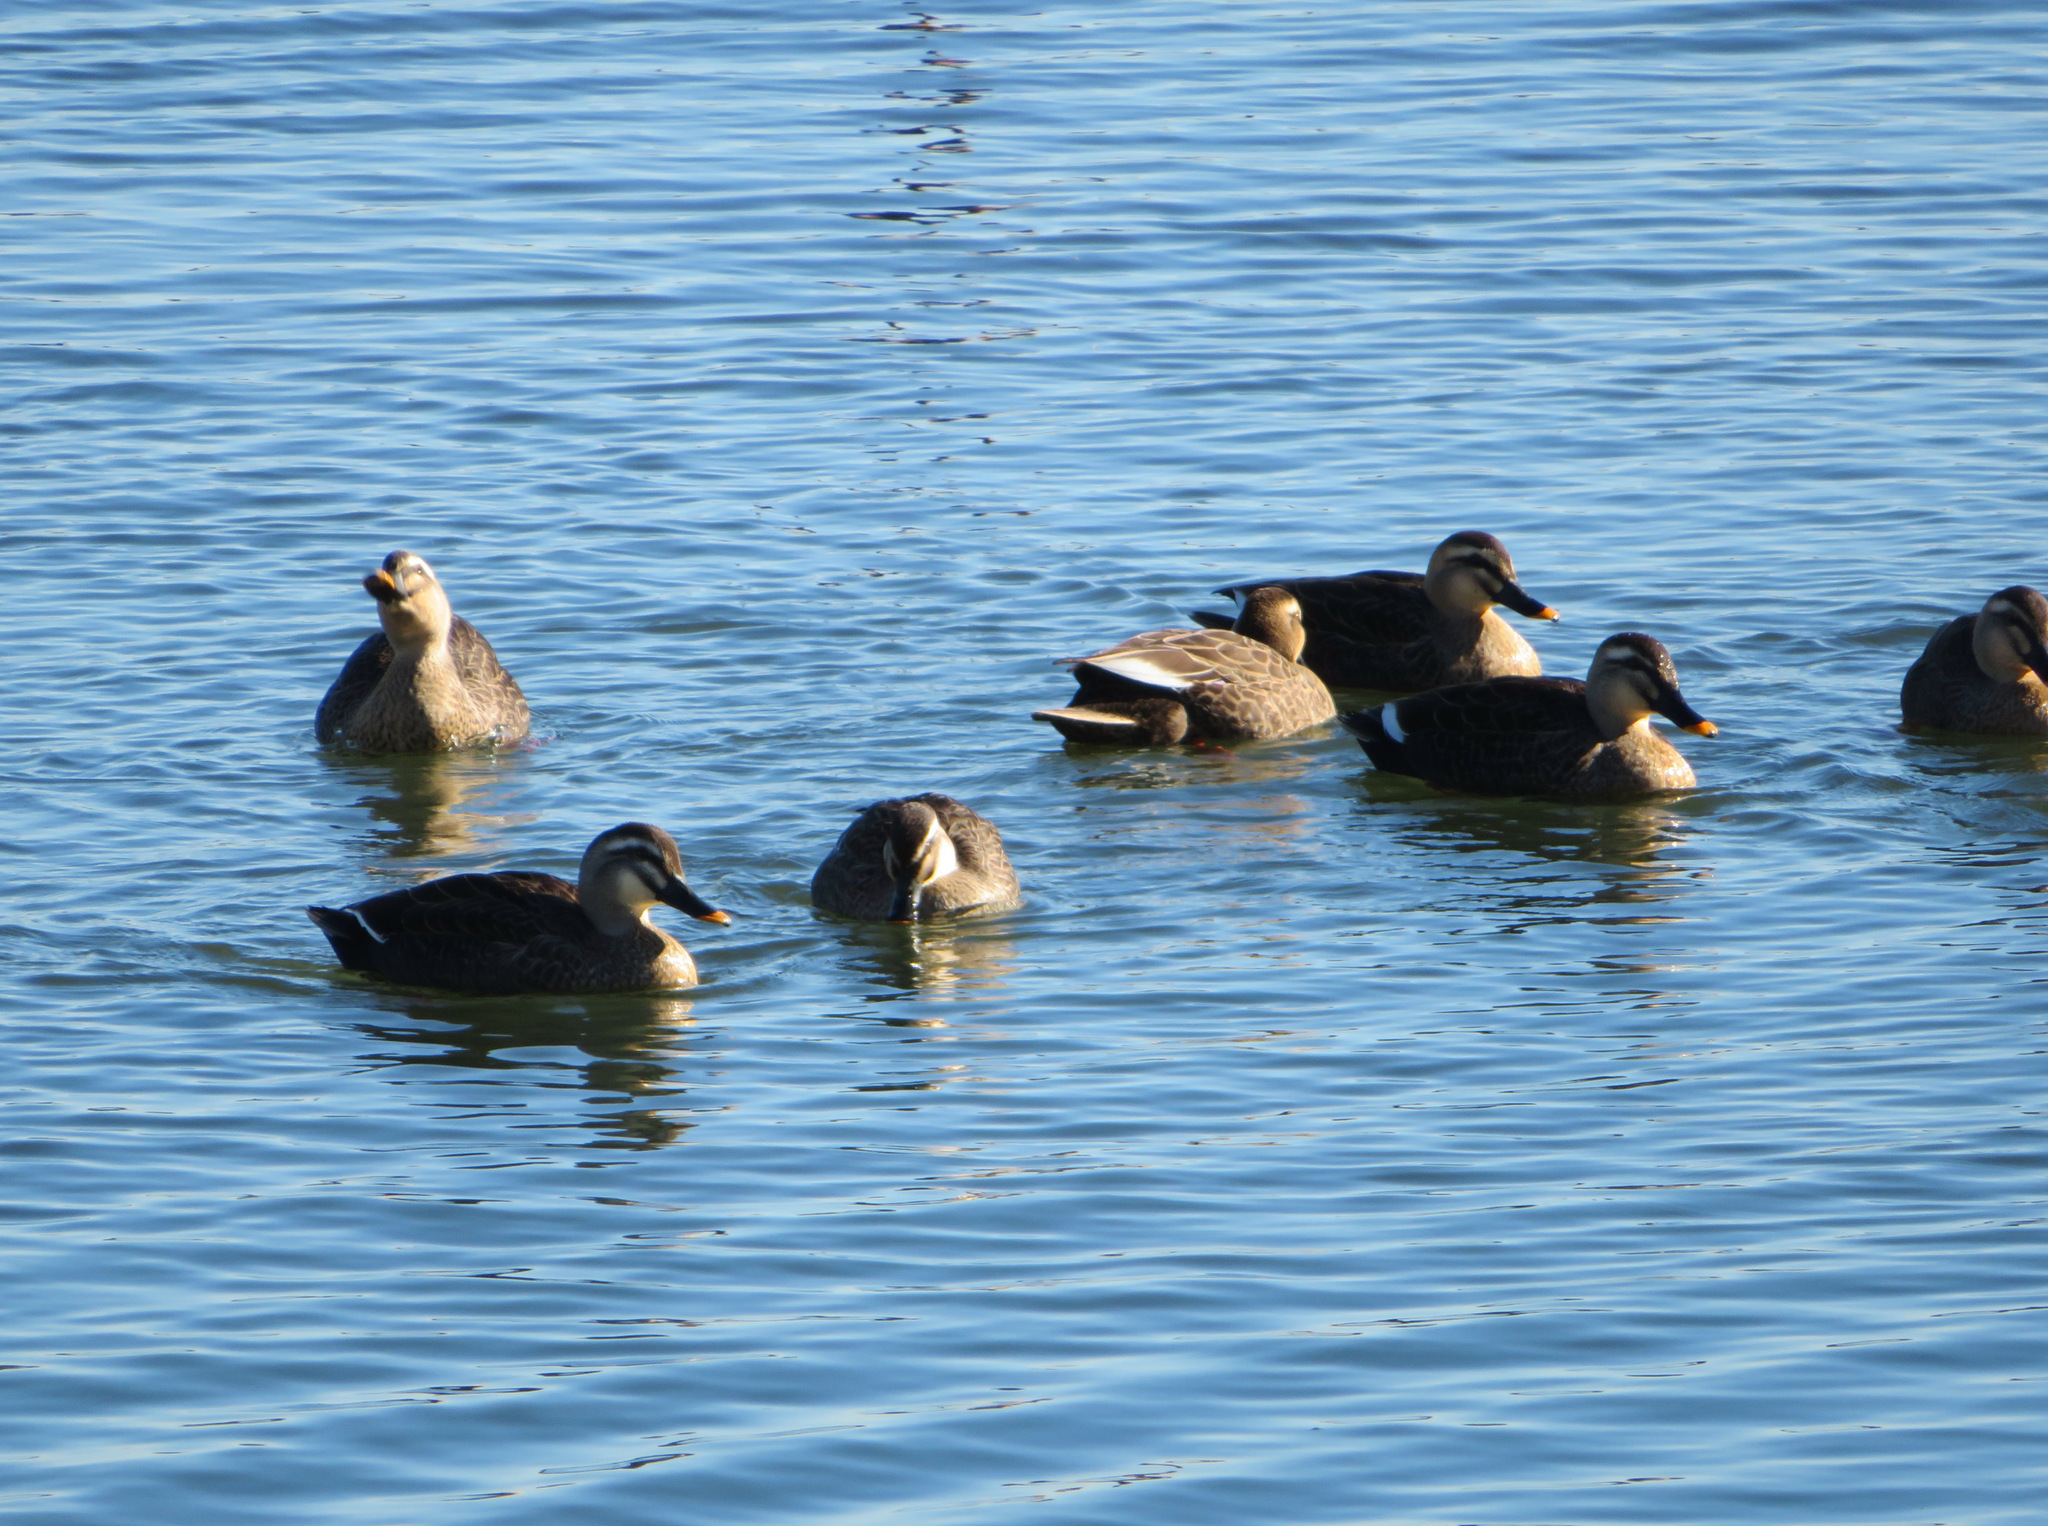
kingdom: Animalia
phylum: Chordata
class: Aves
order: Anseriformes
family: Anatidae
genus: Anas
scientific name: Anas zonorhyncha
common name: Eastern spot-billed duck
